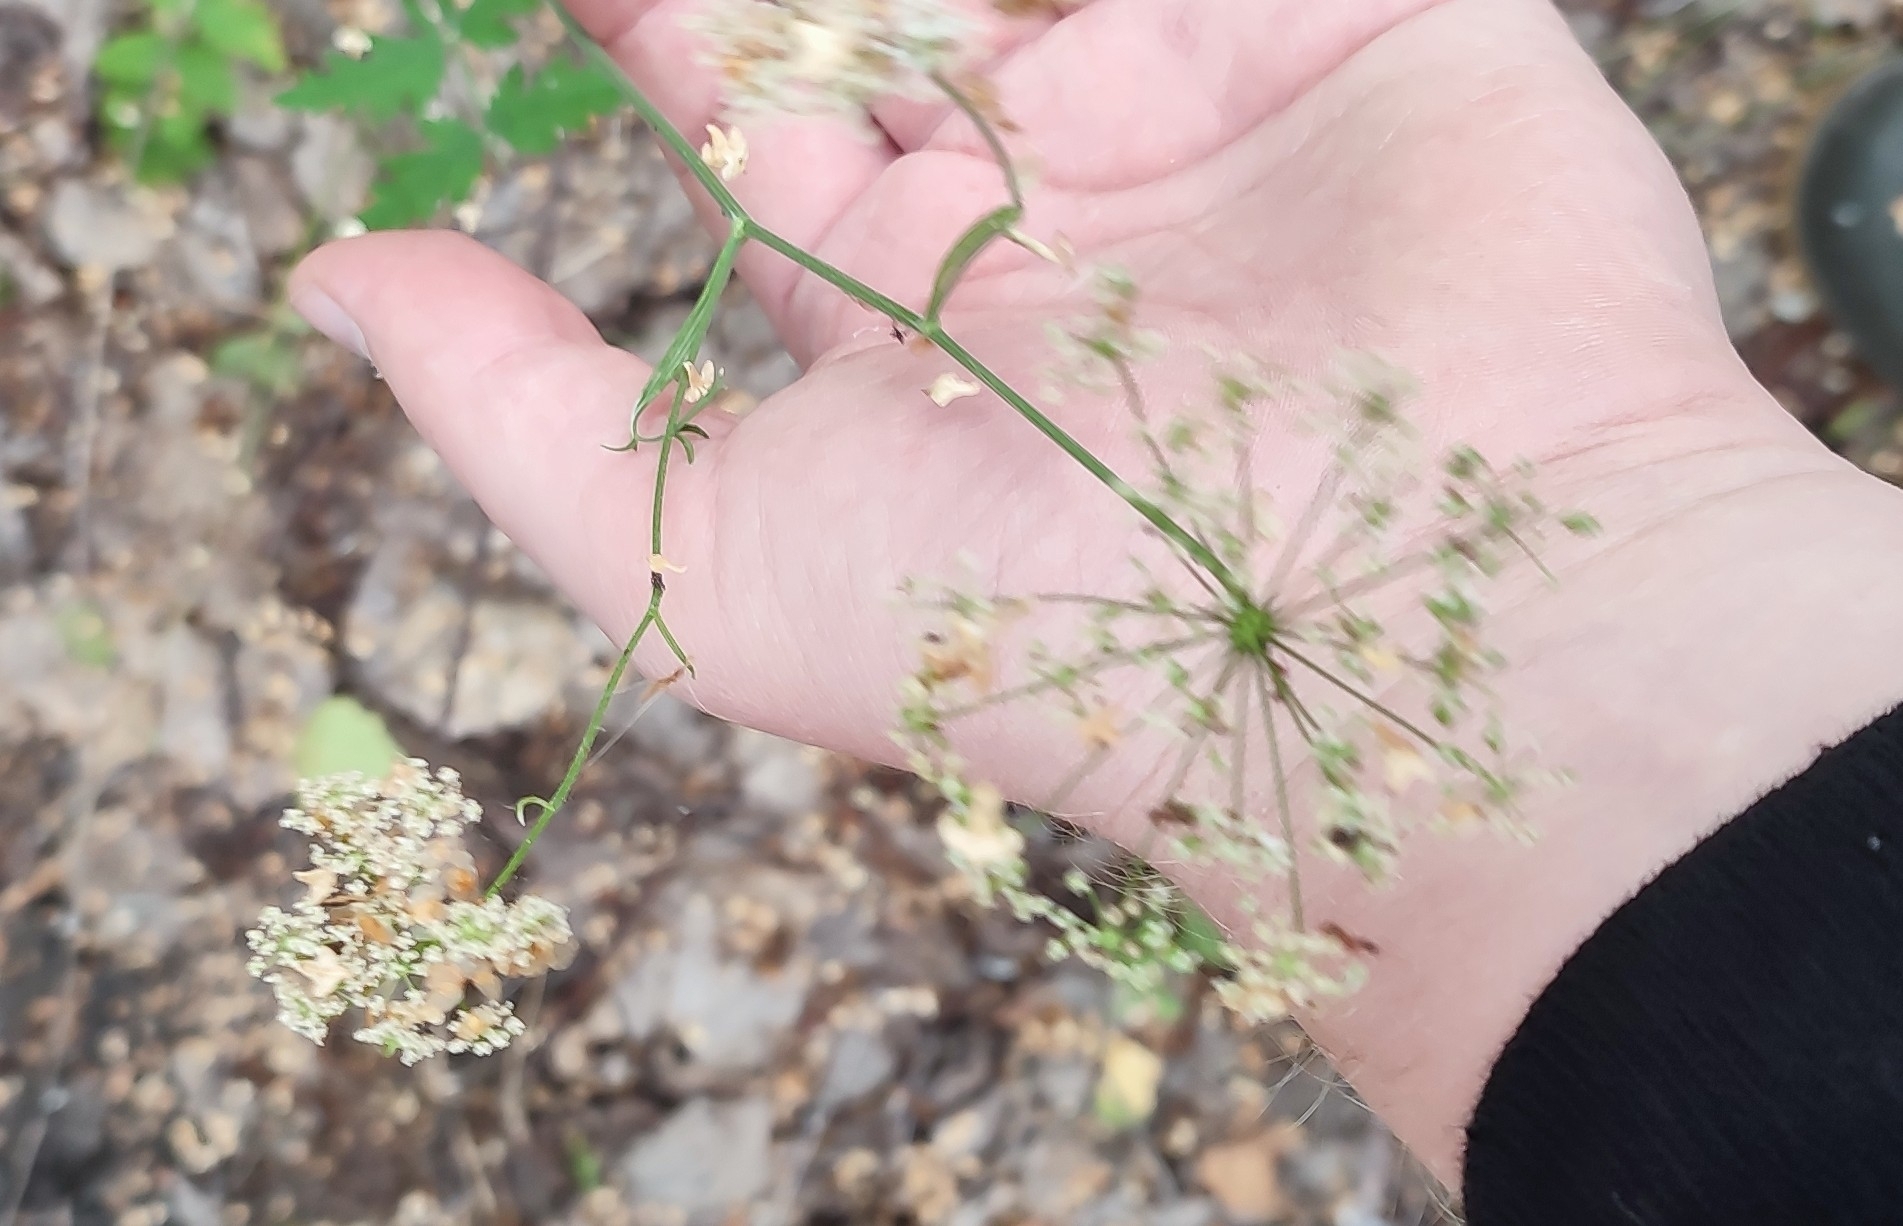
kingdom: Plantae
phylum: Tracheophyta
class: Magnoliopsida
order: Apiales
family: Apiaceae
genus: Pimpinella
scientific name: Pimpinella saxifraga
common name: Burnet-saxifrage
